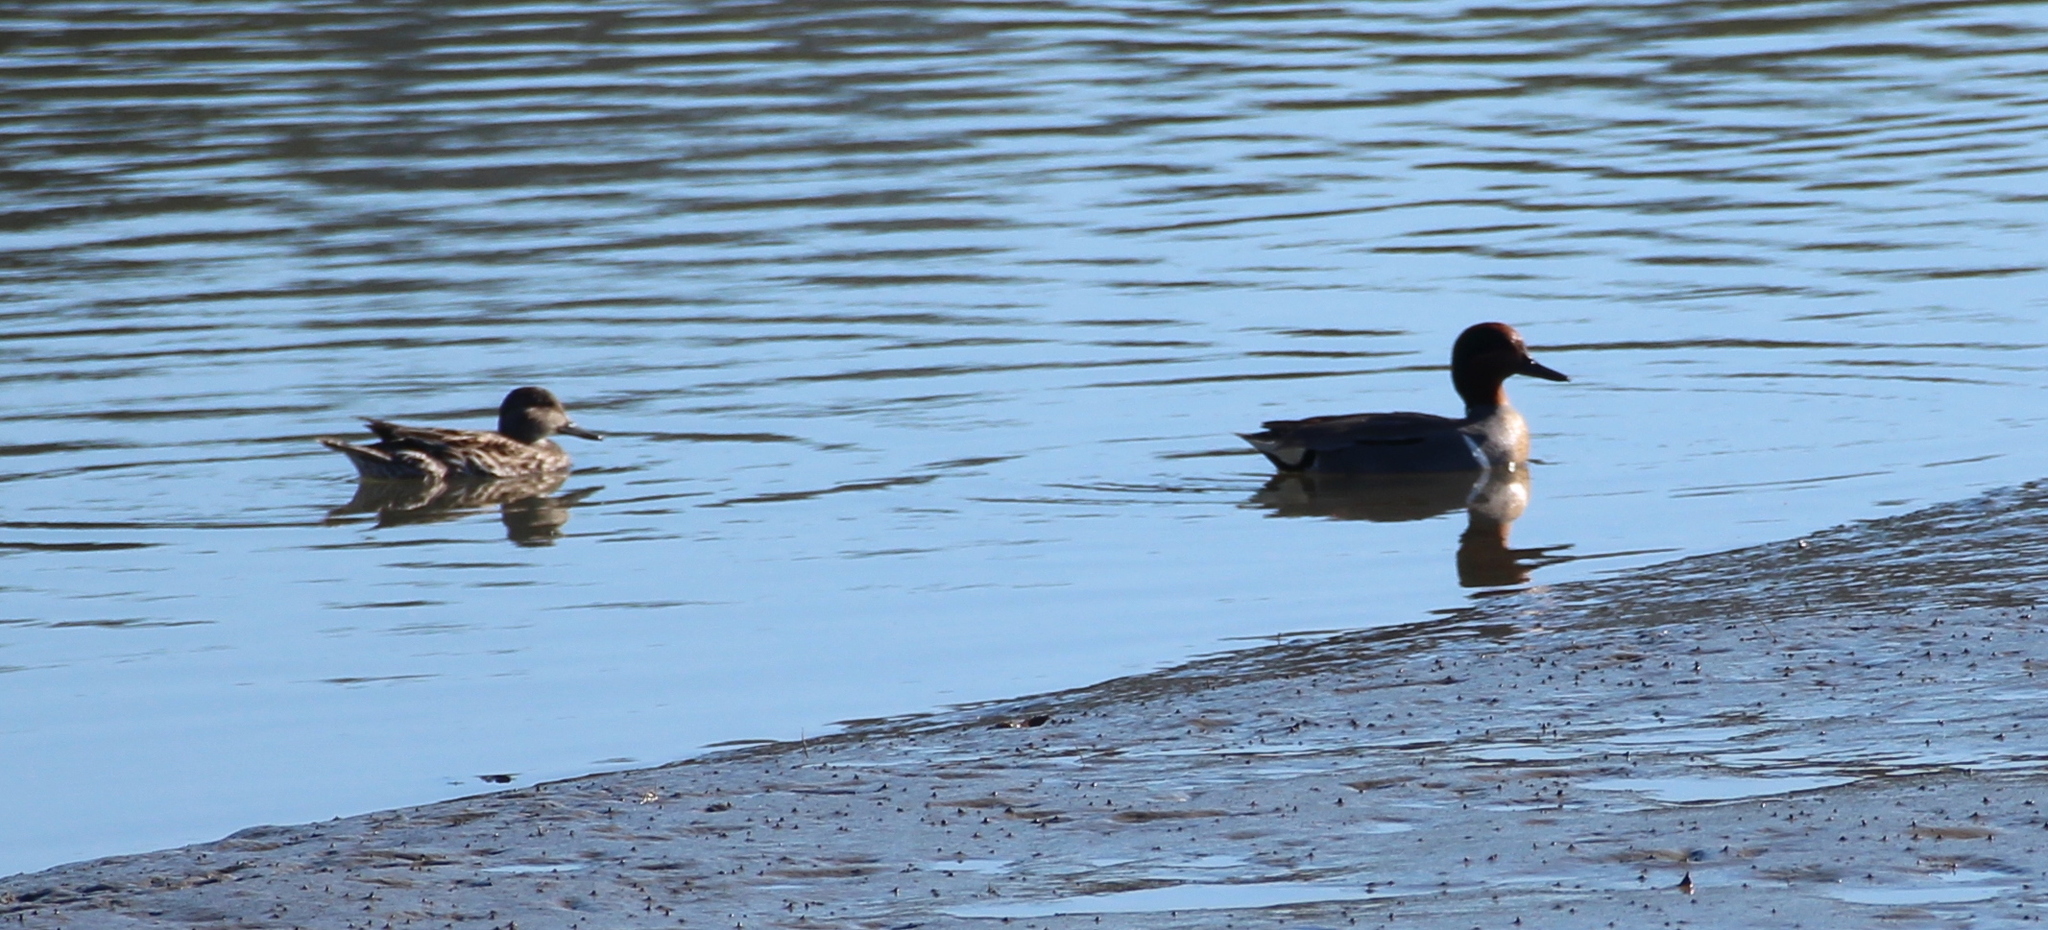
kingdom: Animalia
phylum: Chordata
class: Aves
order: Anseriformes
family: Anatidae
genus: Anas
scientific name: Anas crecca
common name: Eurasian teal
